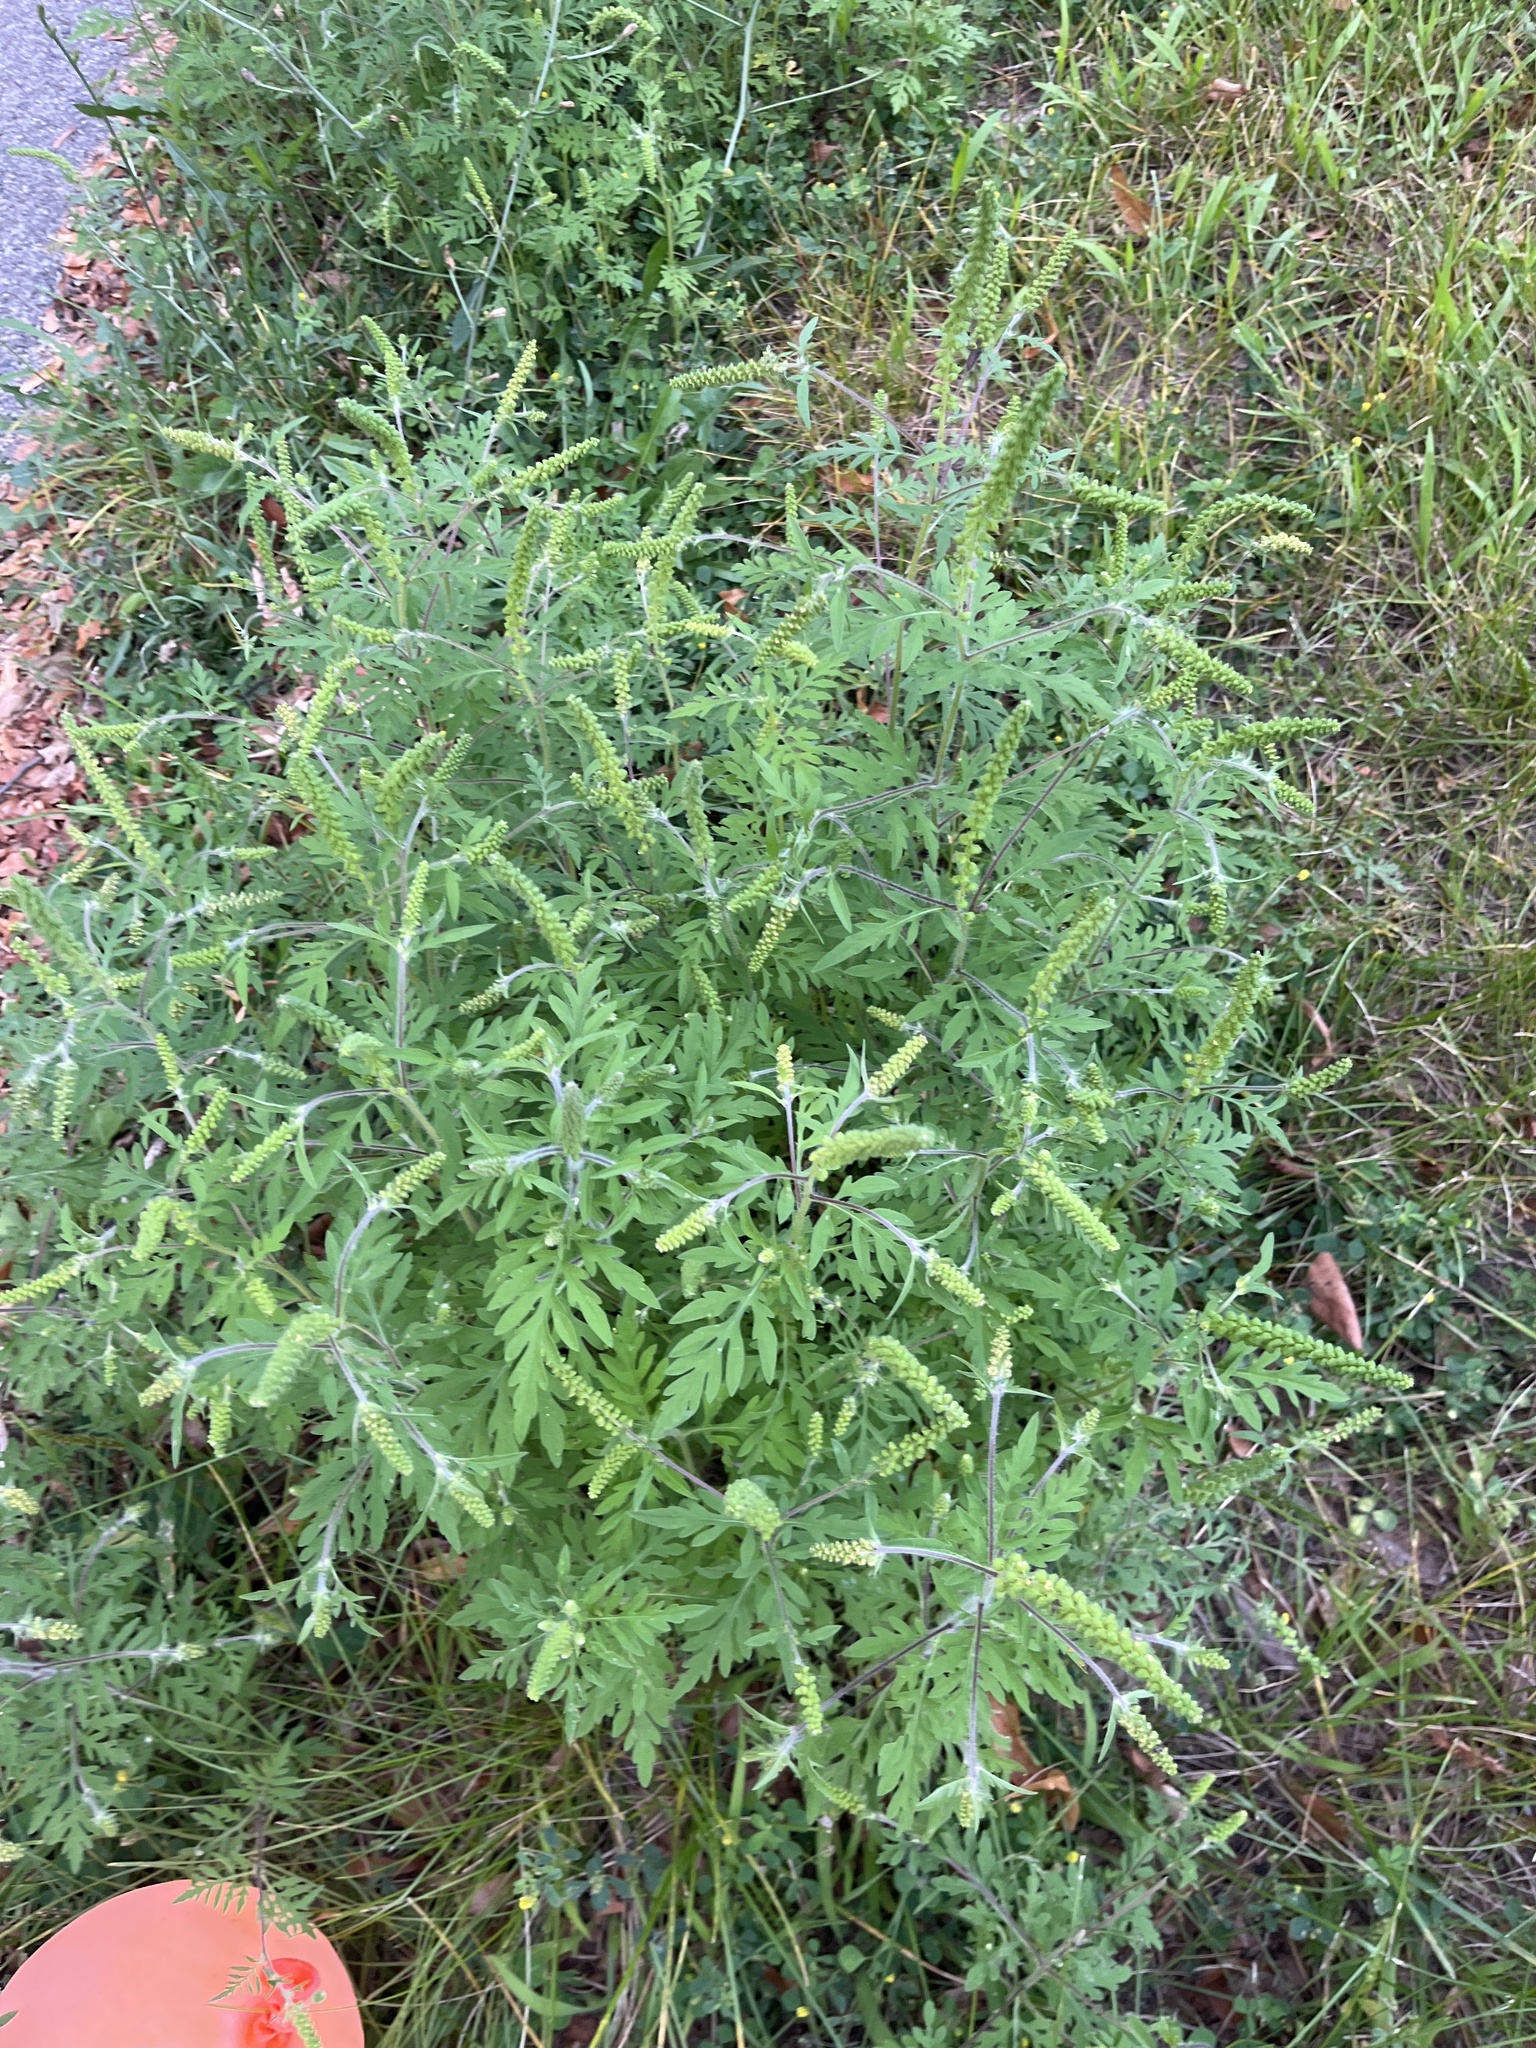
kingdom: Plantae
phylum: Tracheophyta
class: Magnoliopsida
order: Asterales
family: Asteraceae
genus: Ambrosia
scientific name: Ambrosia artemisiifolia
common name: Annual ragweed
